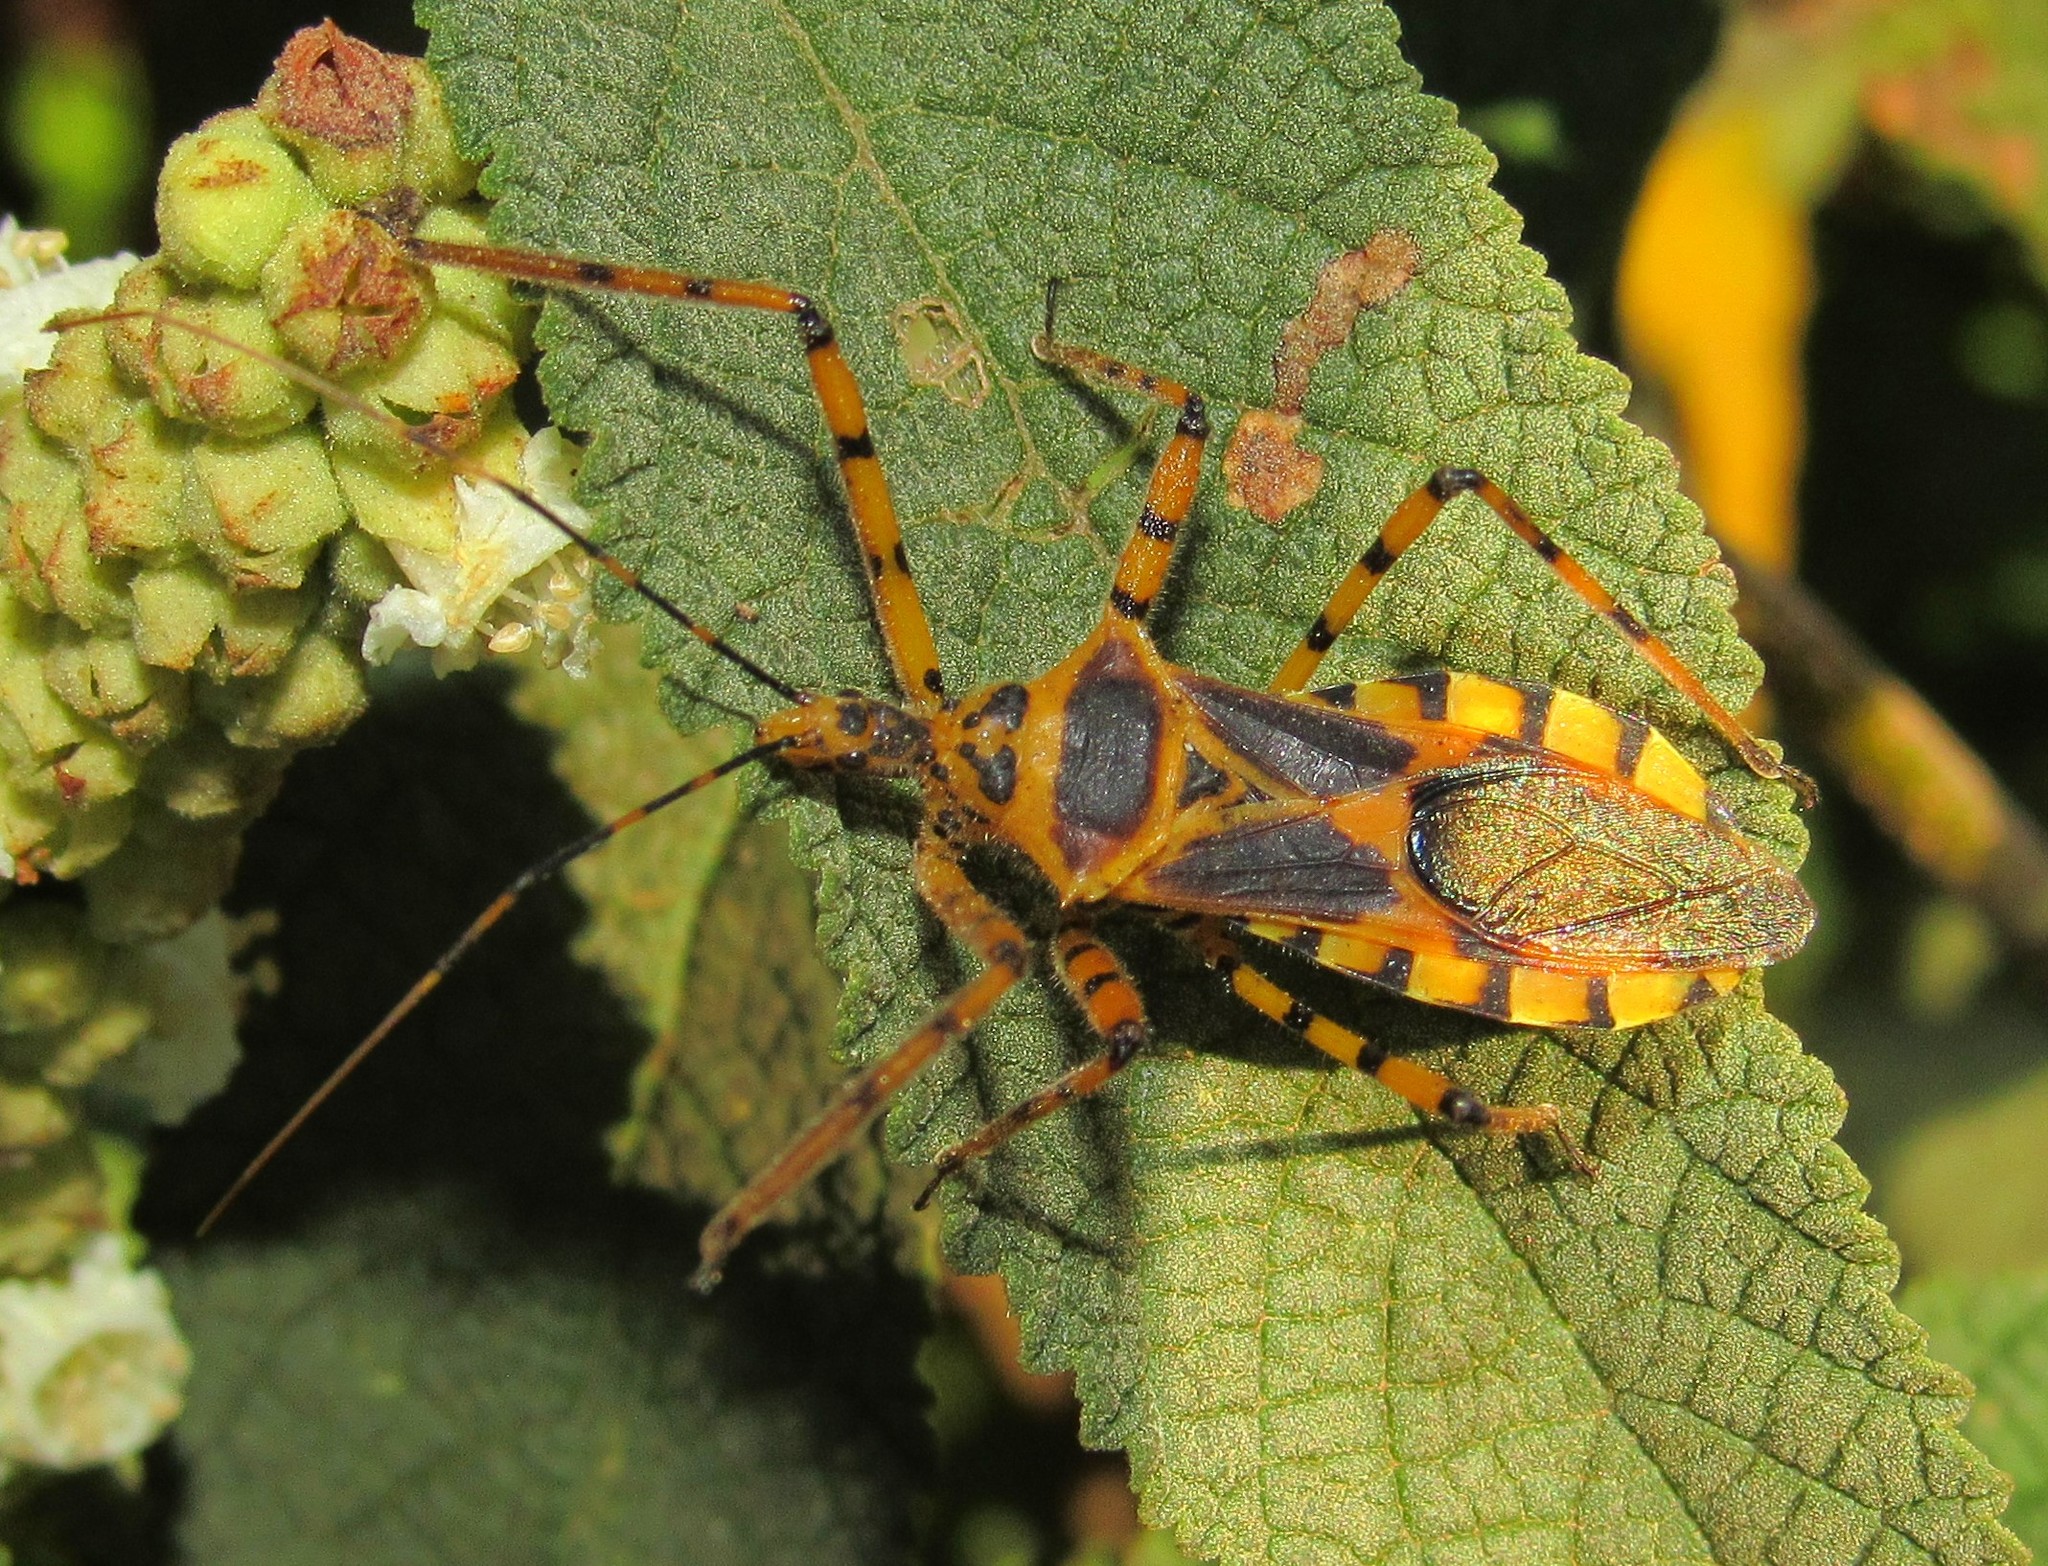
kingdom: Animalia
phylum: Arthropoda
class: Insecta
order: Hemiptera
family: Reduviidae
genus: Zelus
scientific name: Zelus conjungens
